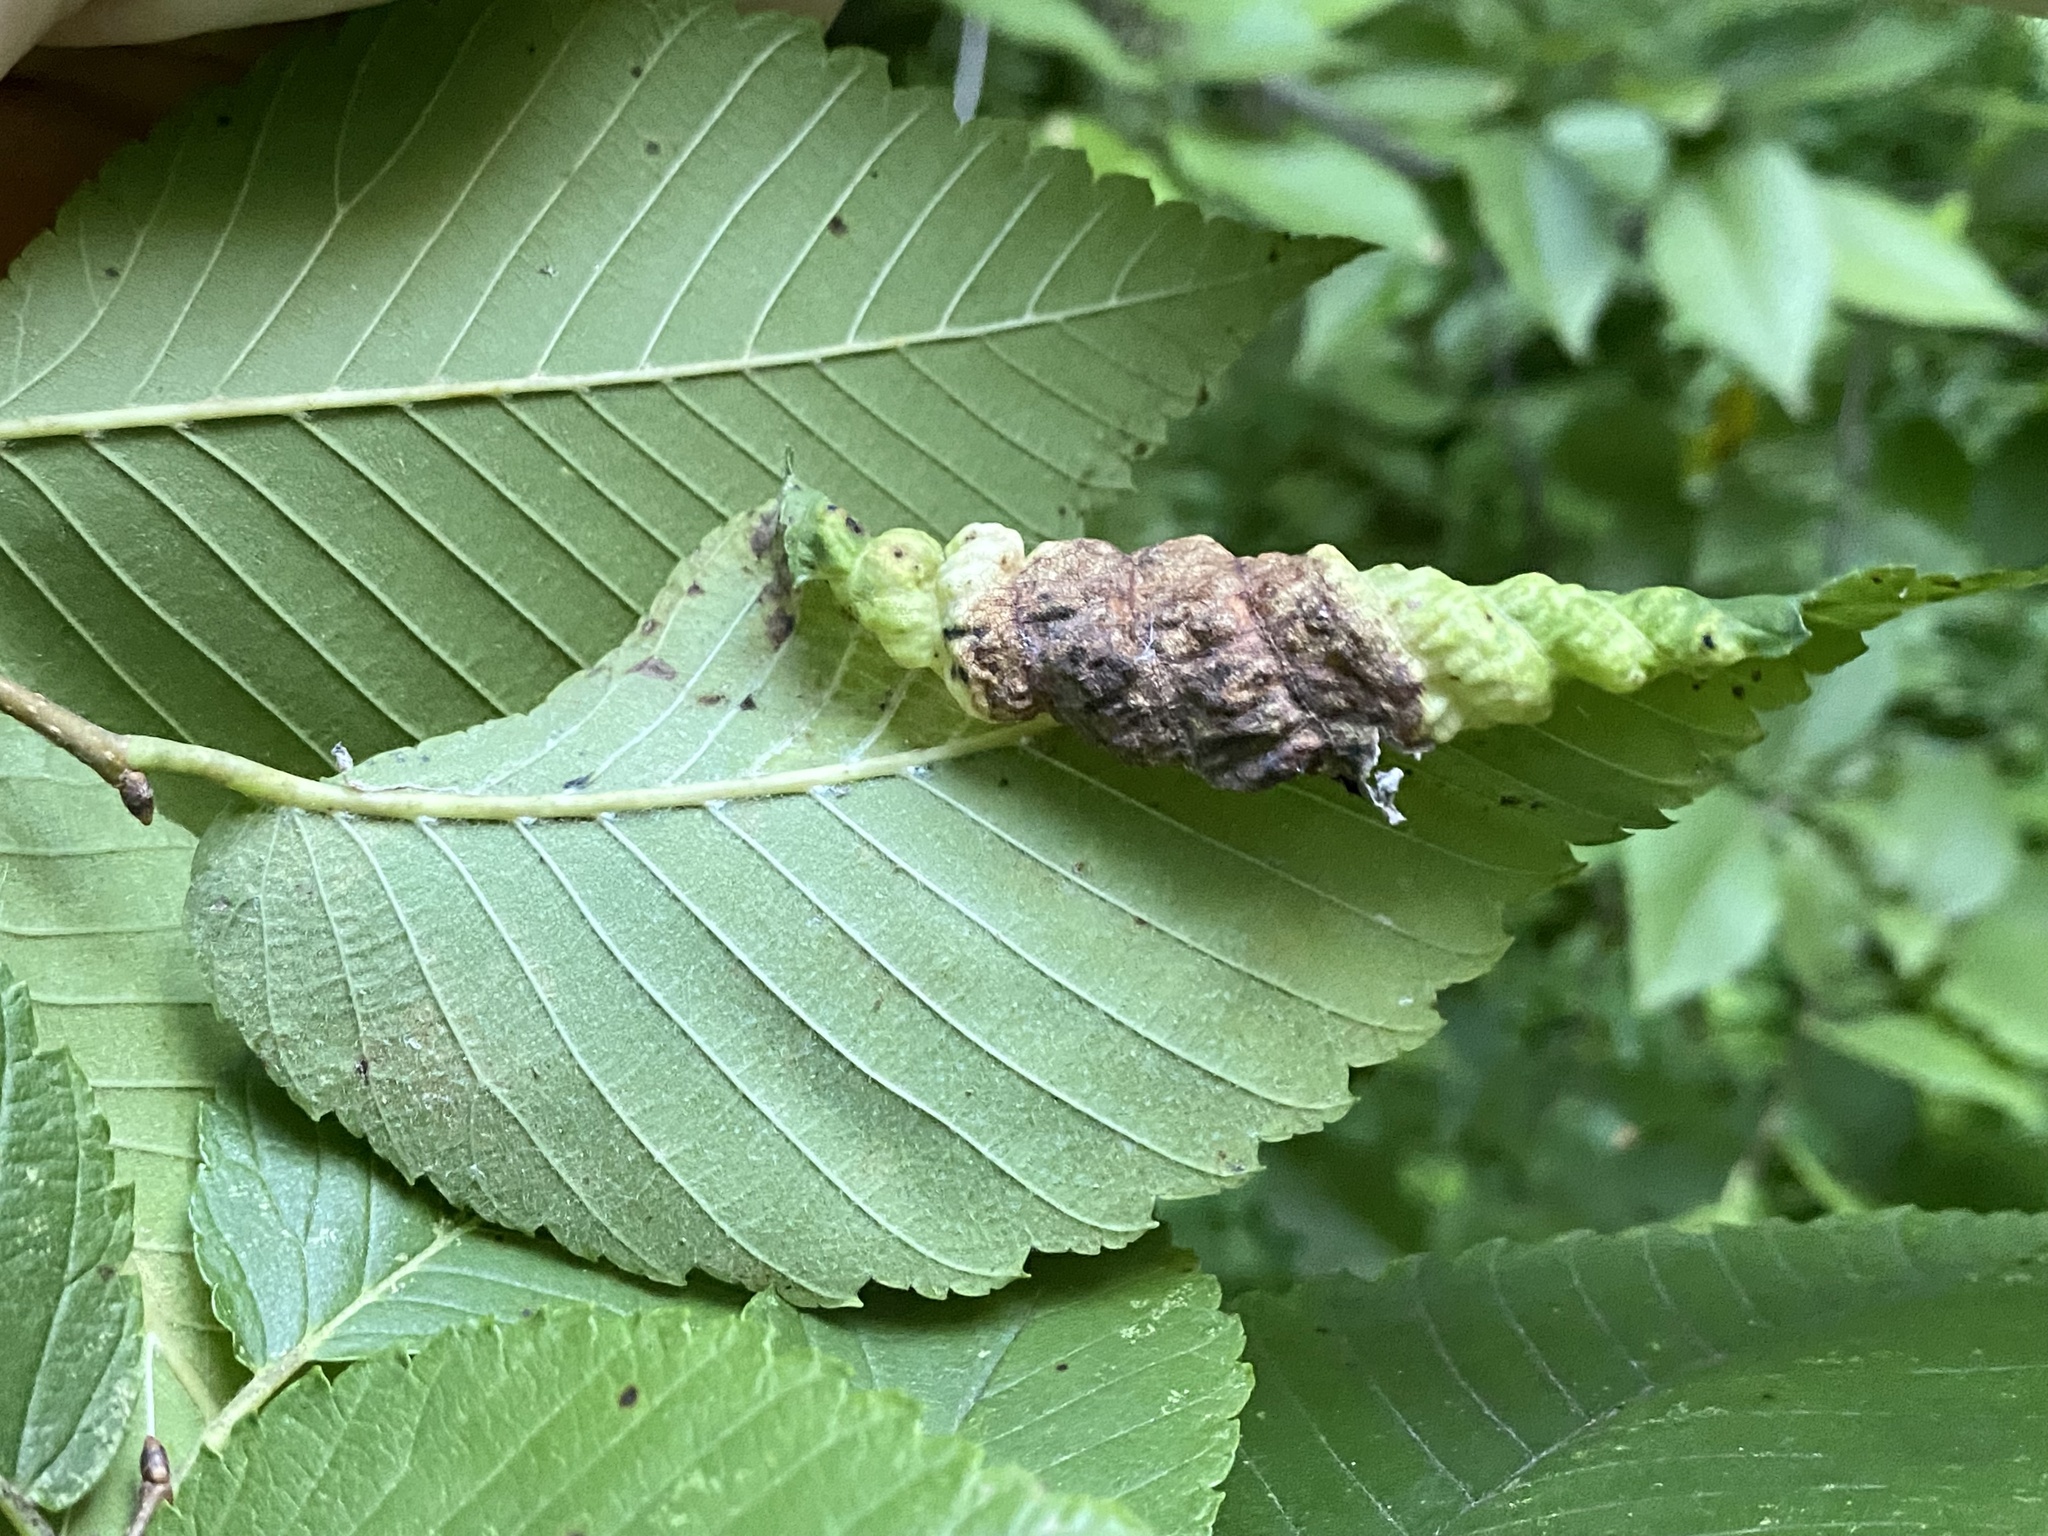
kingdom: Animalia
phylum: Arthropoda
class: Insecta
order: Hemiptera
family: Aphididae
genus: Eriosoma
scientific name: Eriosoma americanum
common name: Woolly elm aphid
